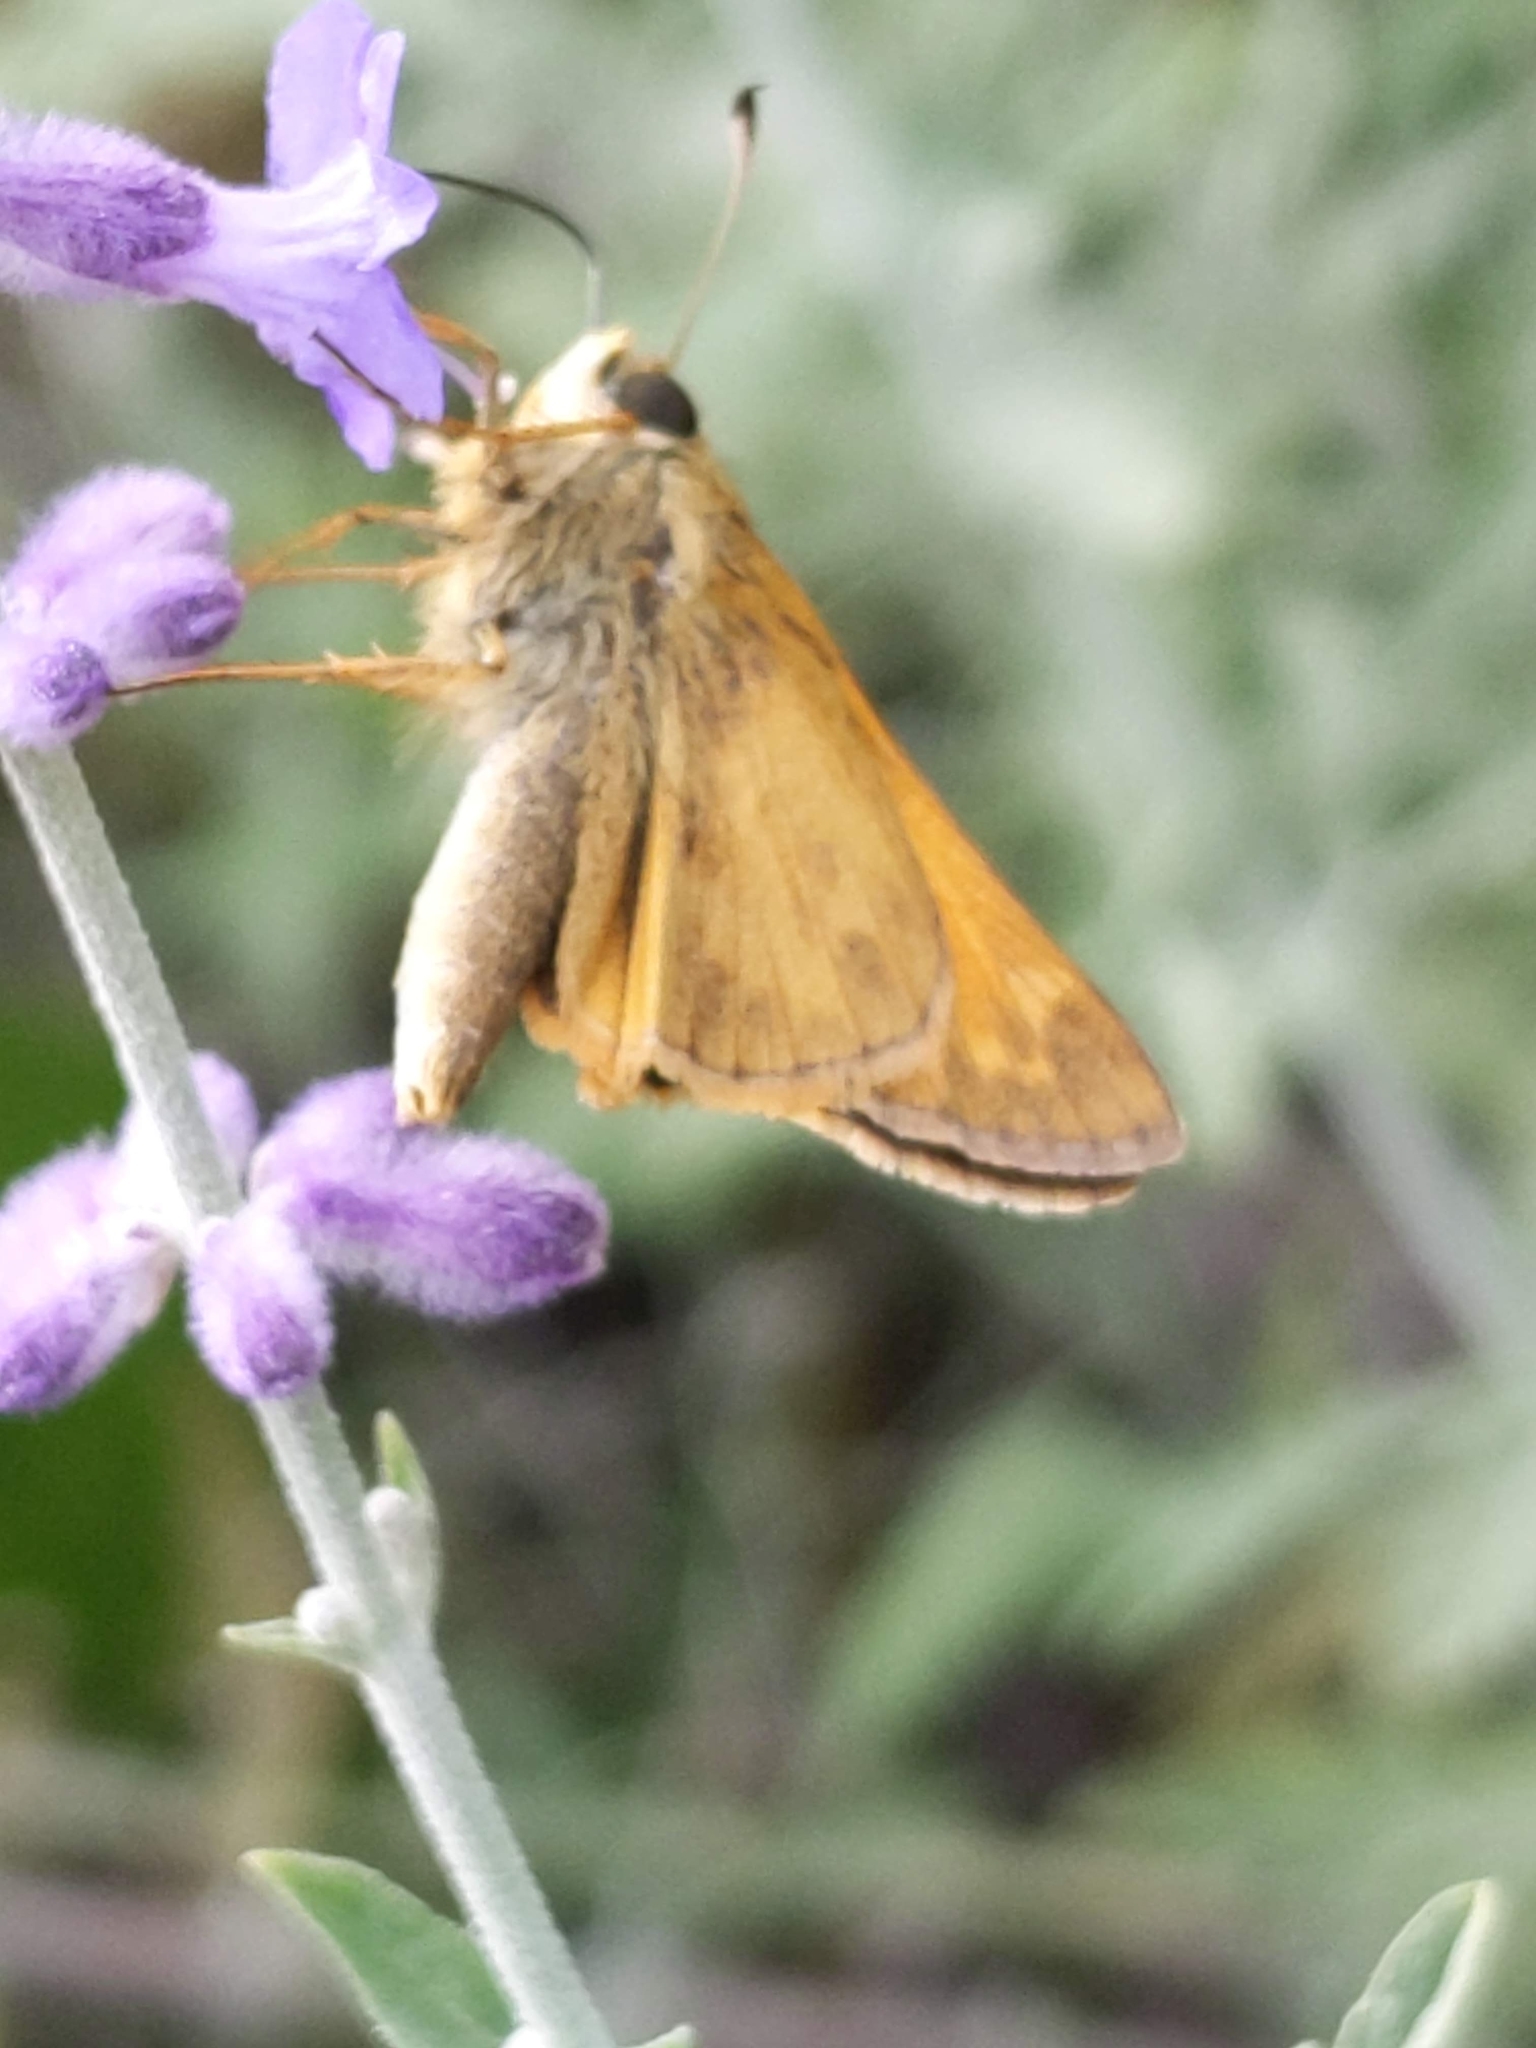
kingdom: Animalia
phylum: Arthropoda
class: Insecta
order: Lepidoptera
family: Hesperiidae
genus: Atalopedes
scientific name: Atalopedes
